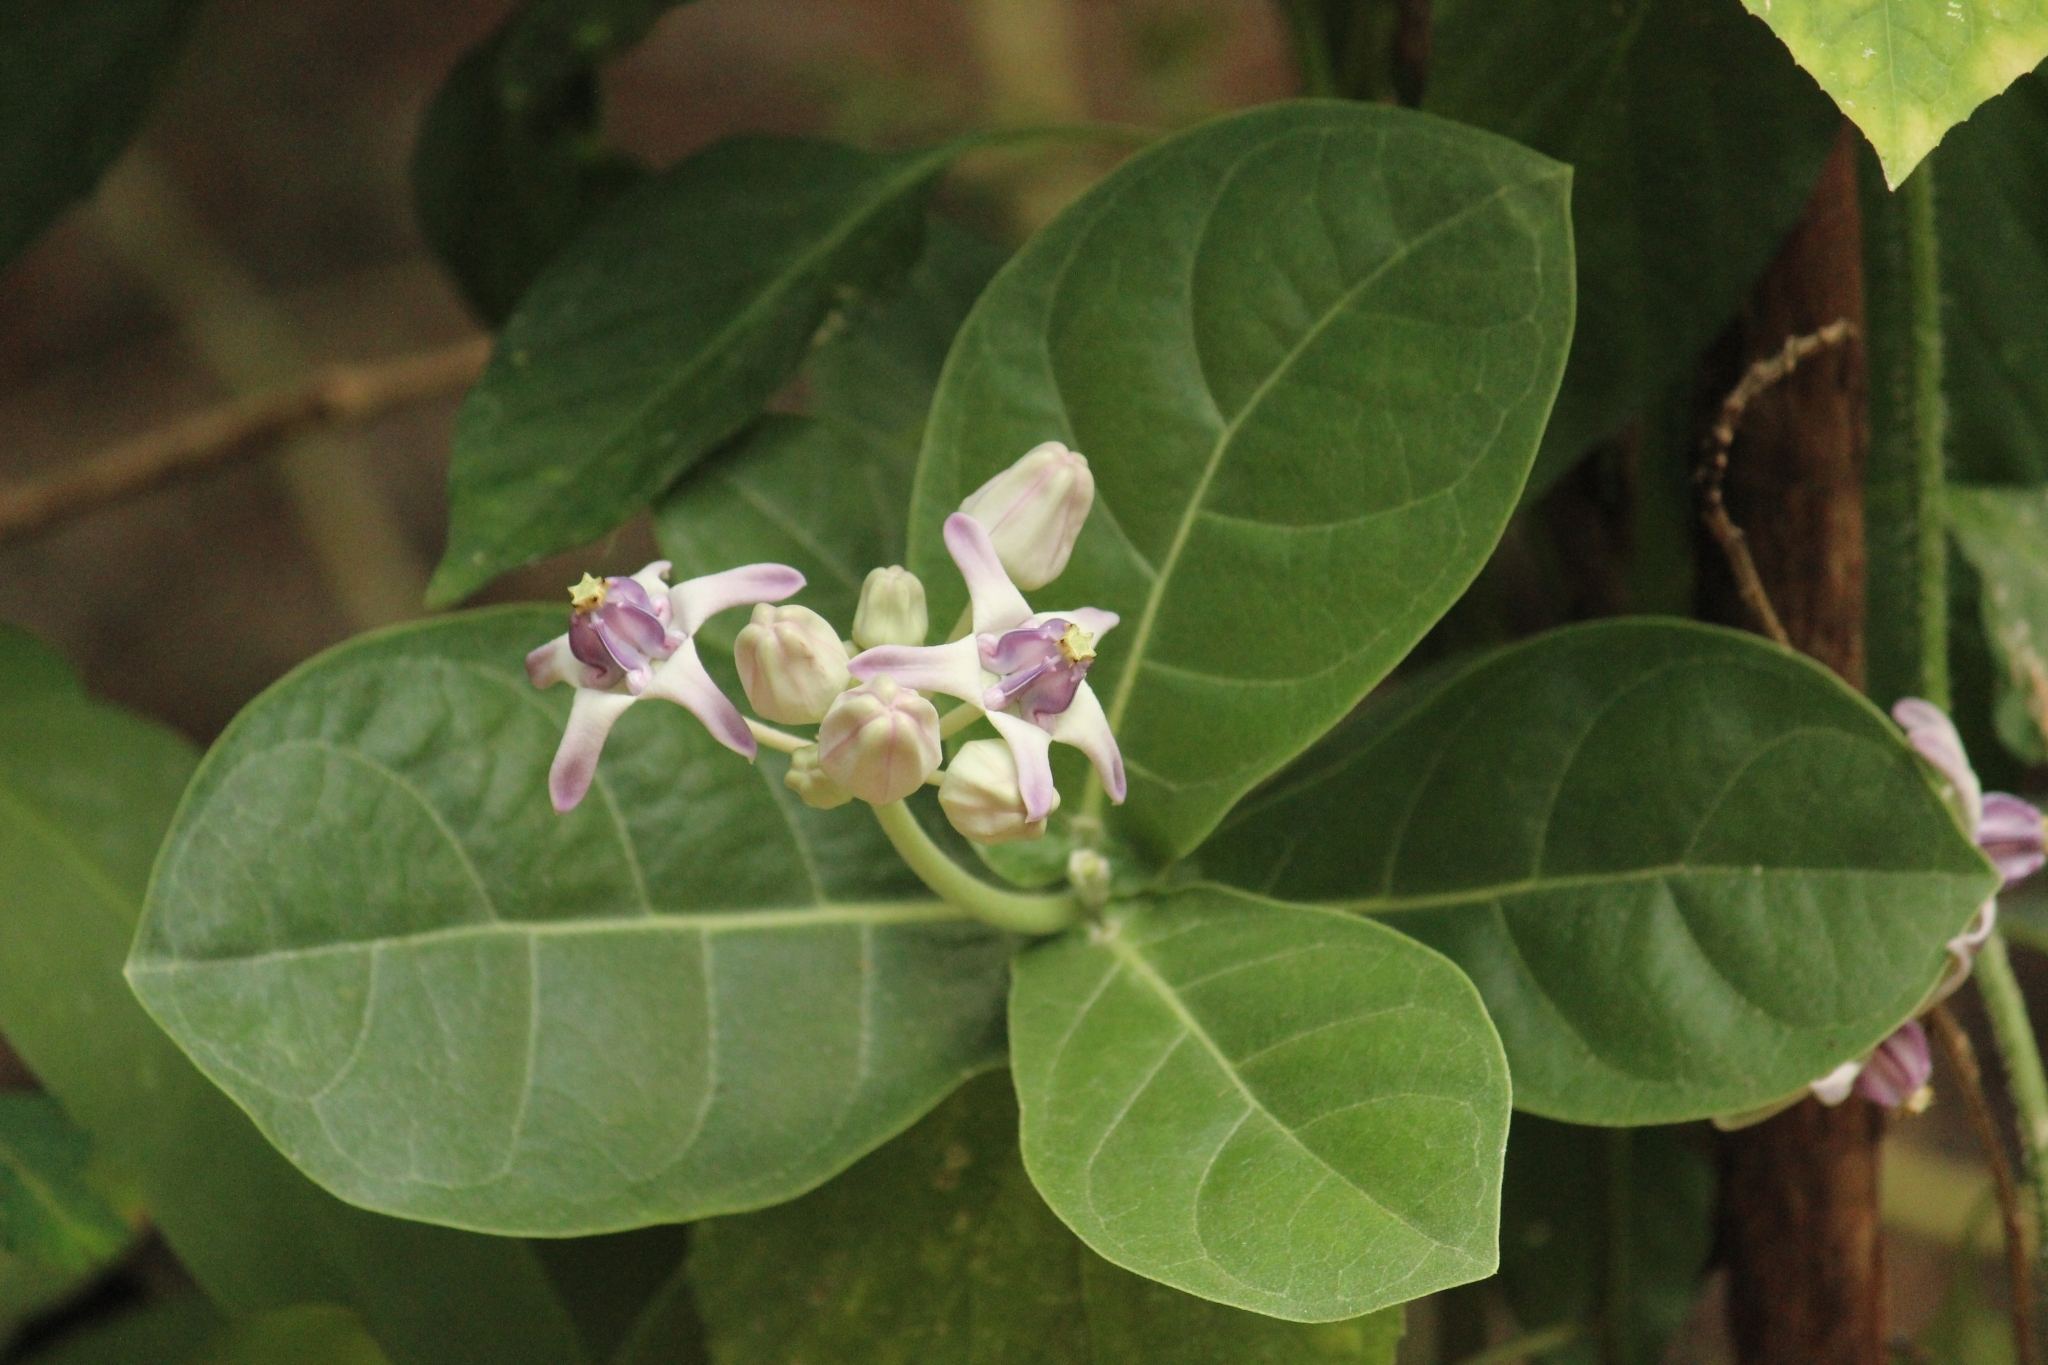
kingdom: Plantae
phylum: Tracheophyta
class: Magnoliopsida
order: Gentianales
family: Apocynaceae
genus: Calotropis
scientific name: Calotropis gigantea
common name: Crown flower
